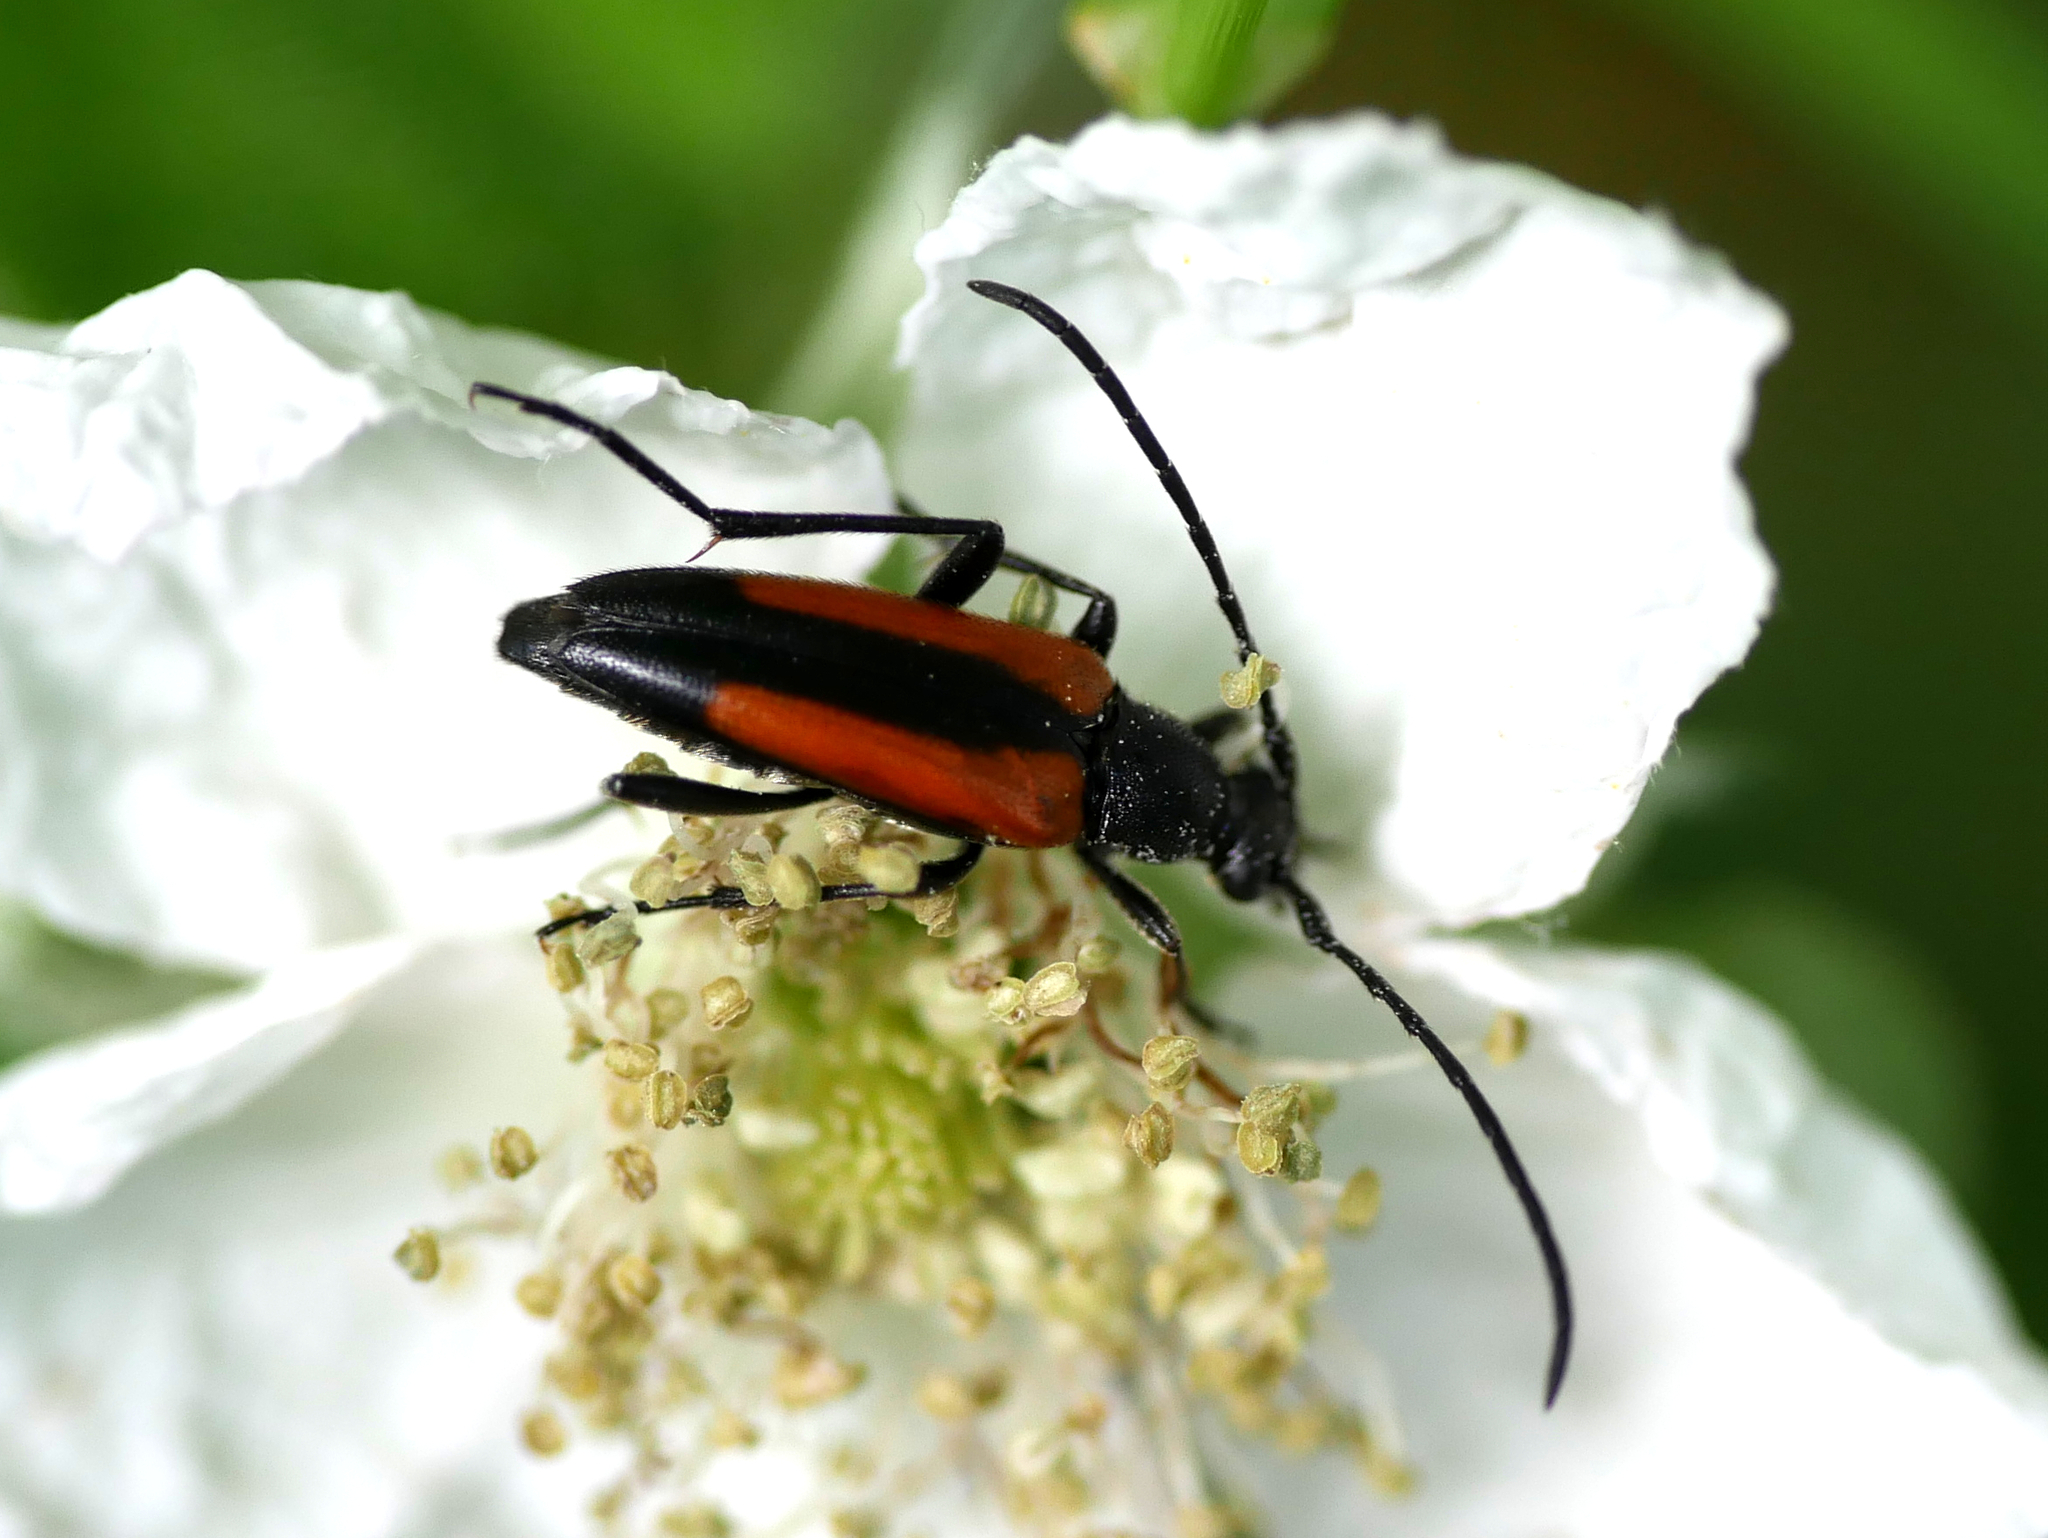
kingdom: Animalia
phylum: Arthropoda
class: Insecta
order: Coleoptera
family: Cerambycidae
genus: Stenurella
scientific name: Stenurella melanura
